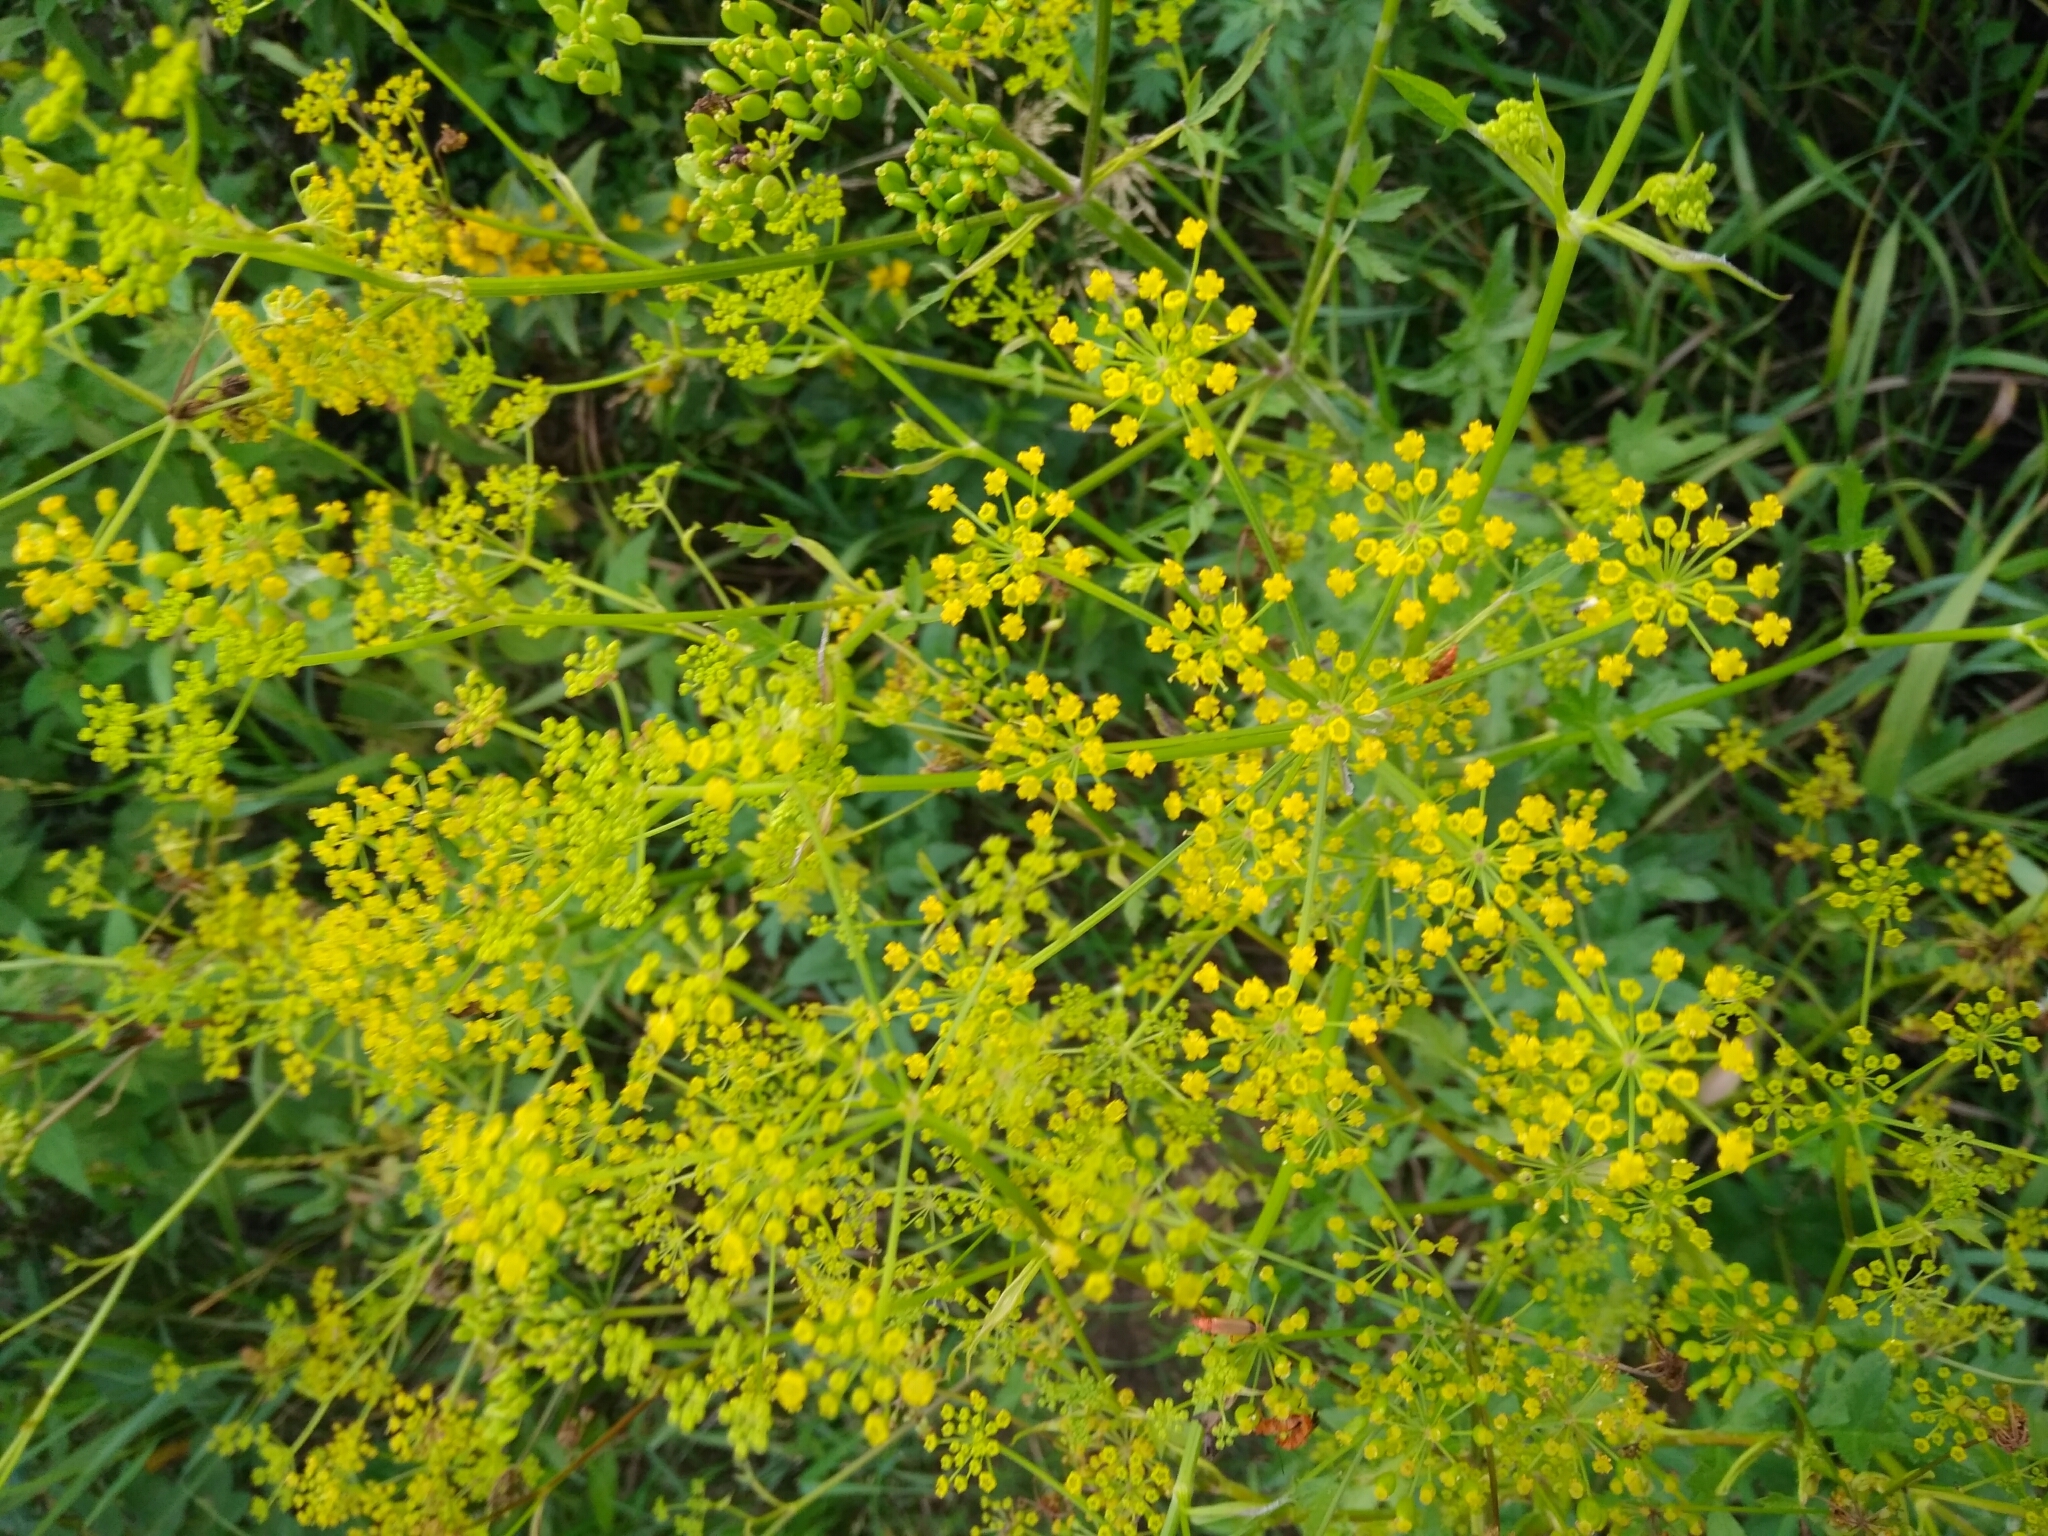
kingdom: Plantae
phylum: Tracheophyta
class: Magnoliopsida
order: Apiales
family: Apiaceae
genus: Pastinaca
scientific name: Pastinaca sativa
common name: Wild parsnip
